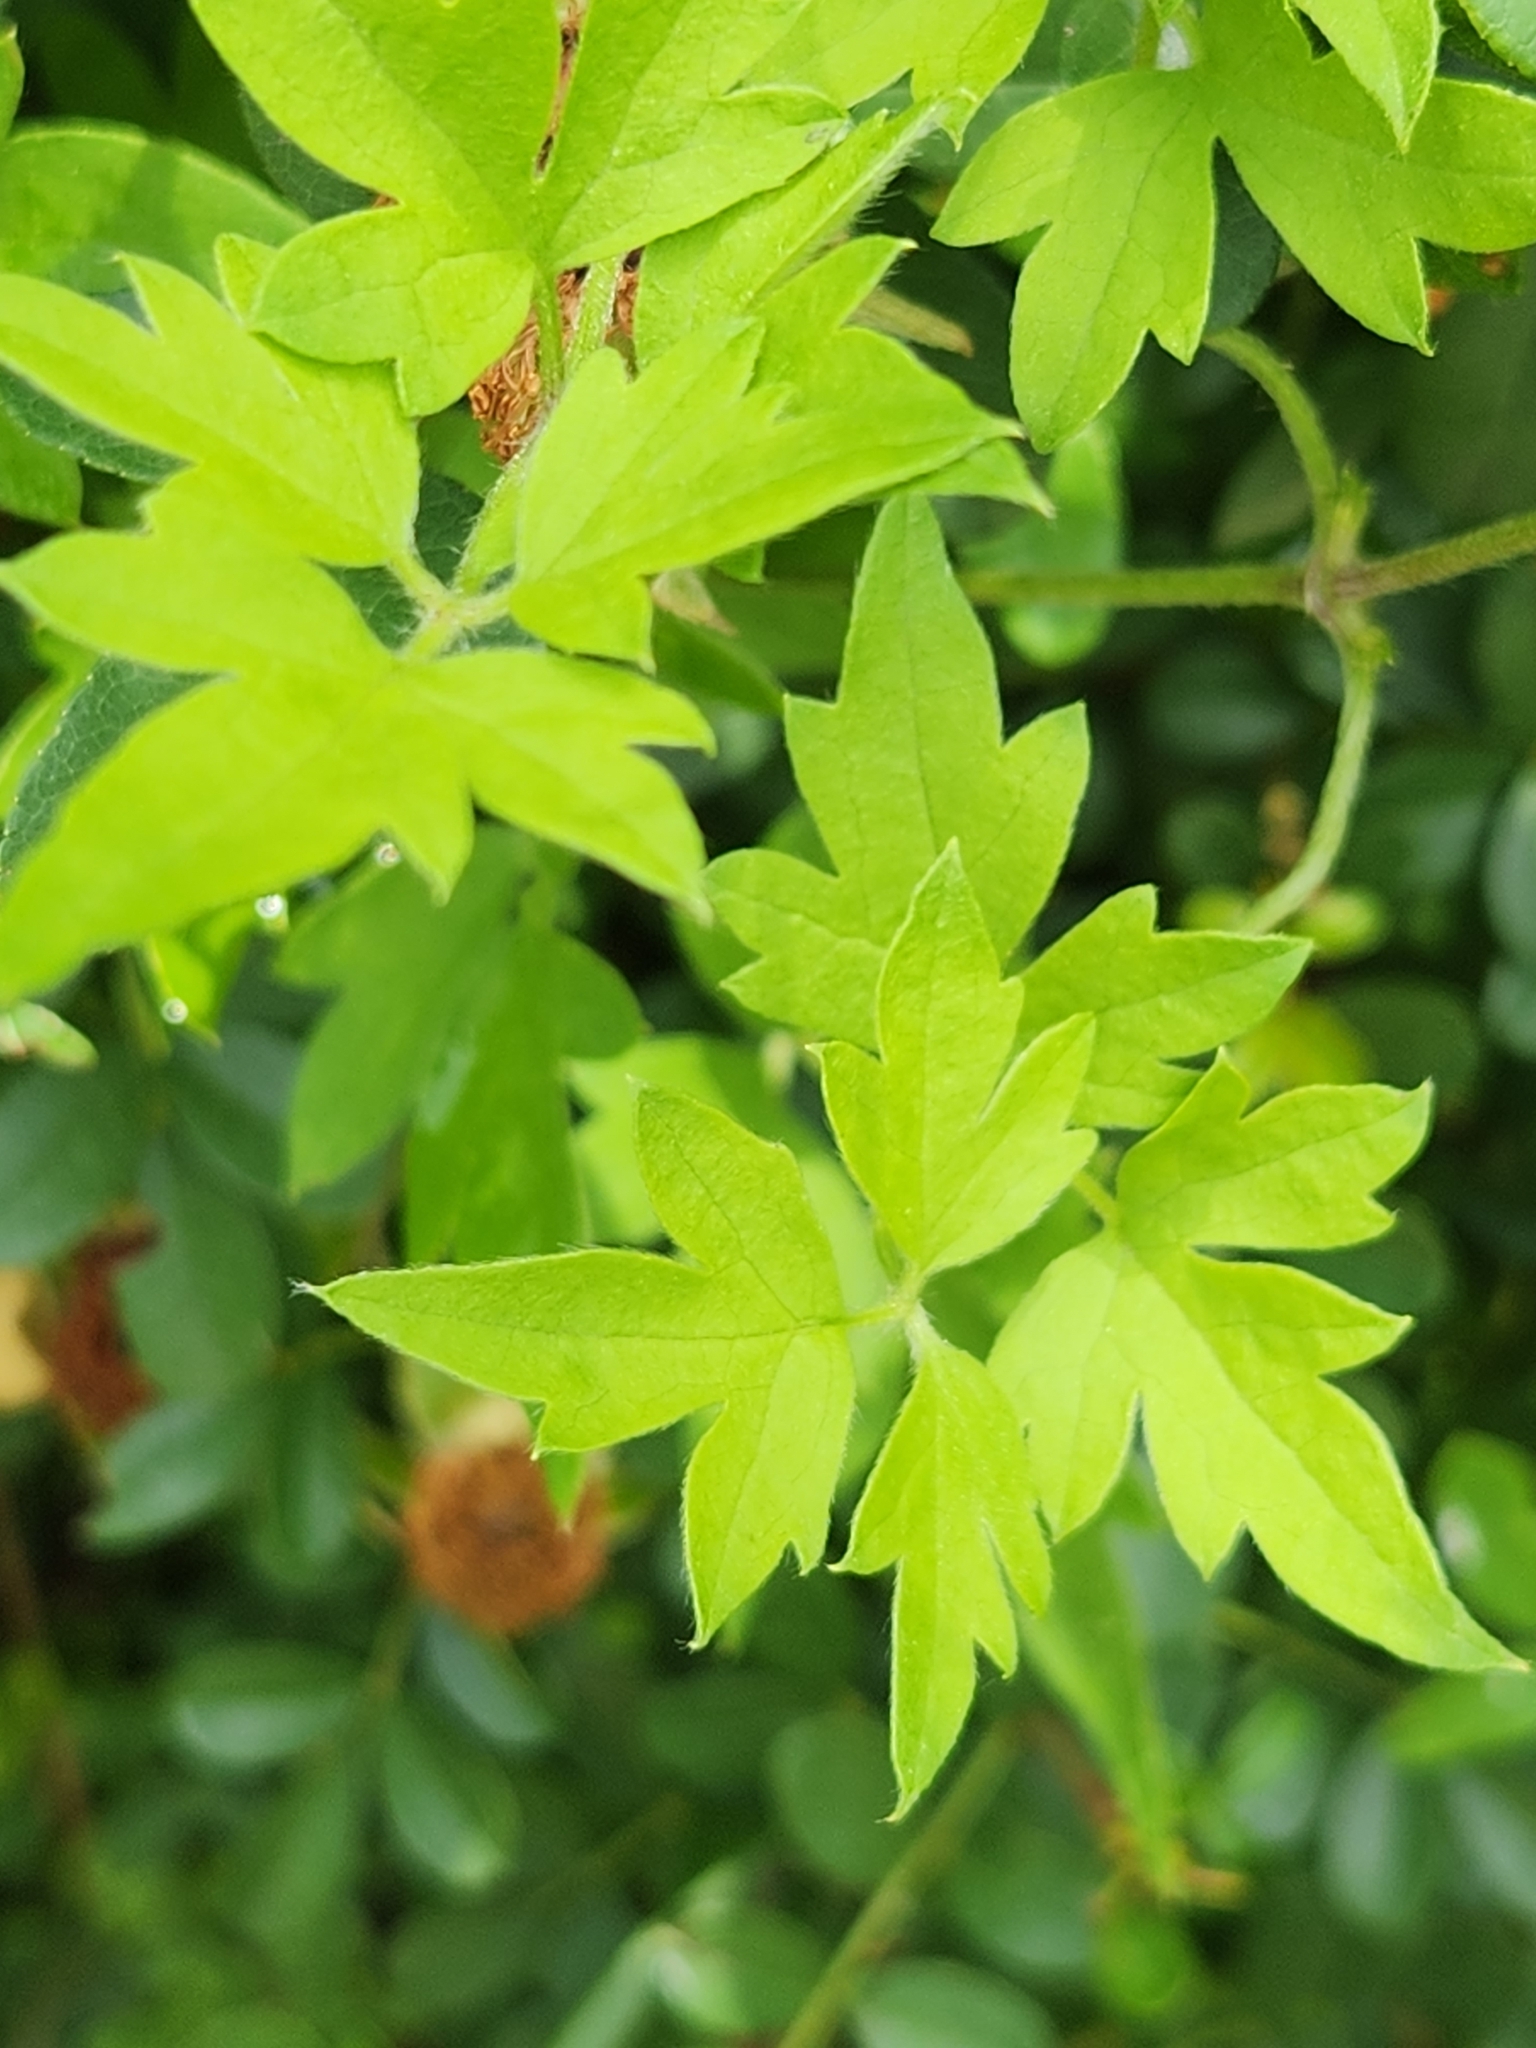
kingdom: Plantae
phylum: Tracheophyta
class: Magnoliopsida
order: Ranunculales
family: Ranunculaceae
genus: Clematis
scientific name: Clematis drummondii
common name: Texas virgin's bower
